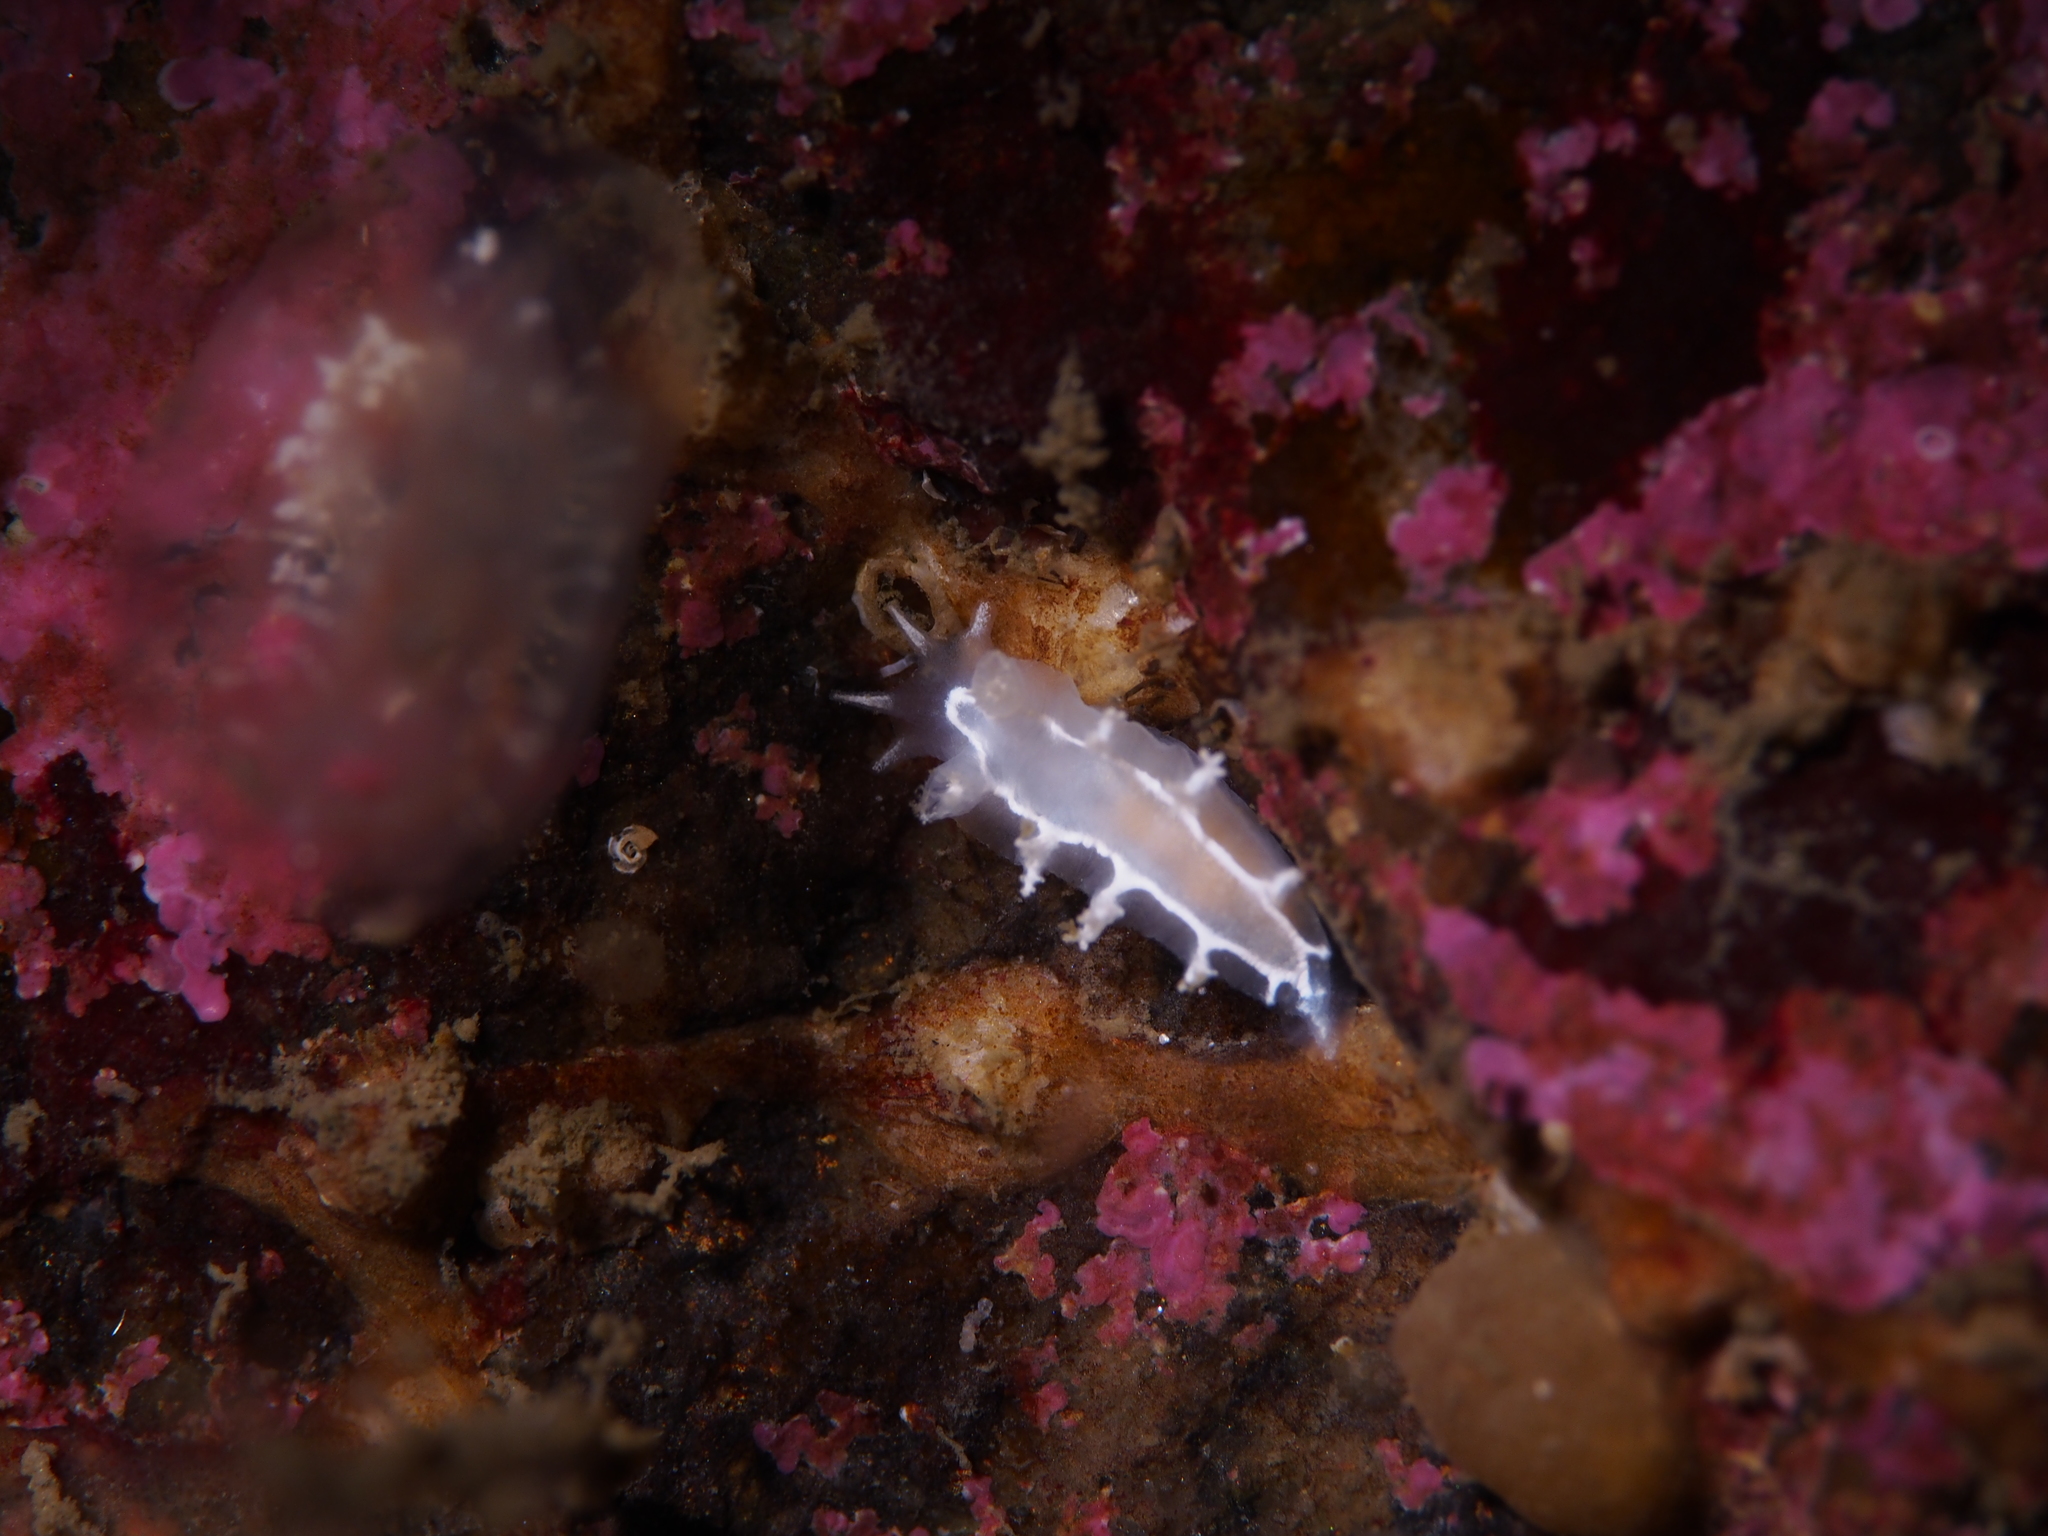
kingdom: Animalia
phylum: Mollusca
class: Gastropoda
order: Nudibranchia
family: Tritoniidae
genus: Duvaucelia
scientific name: Duvaucelia lineata
